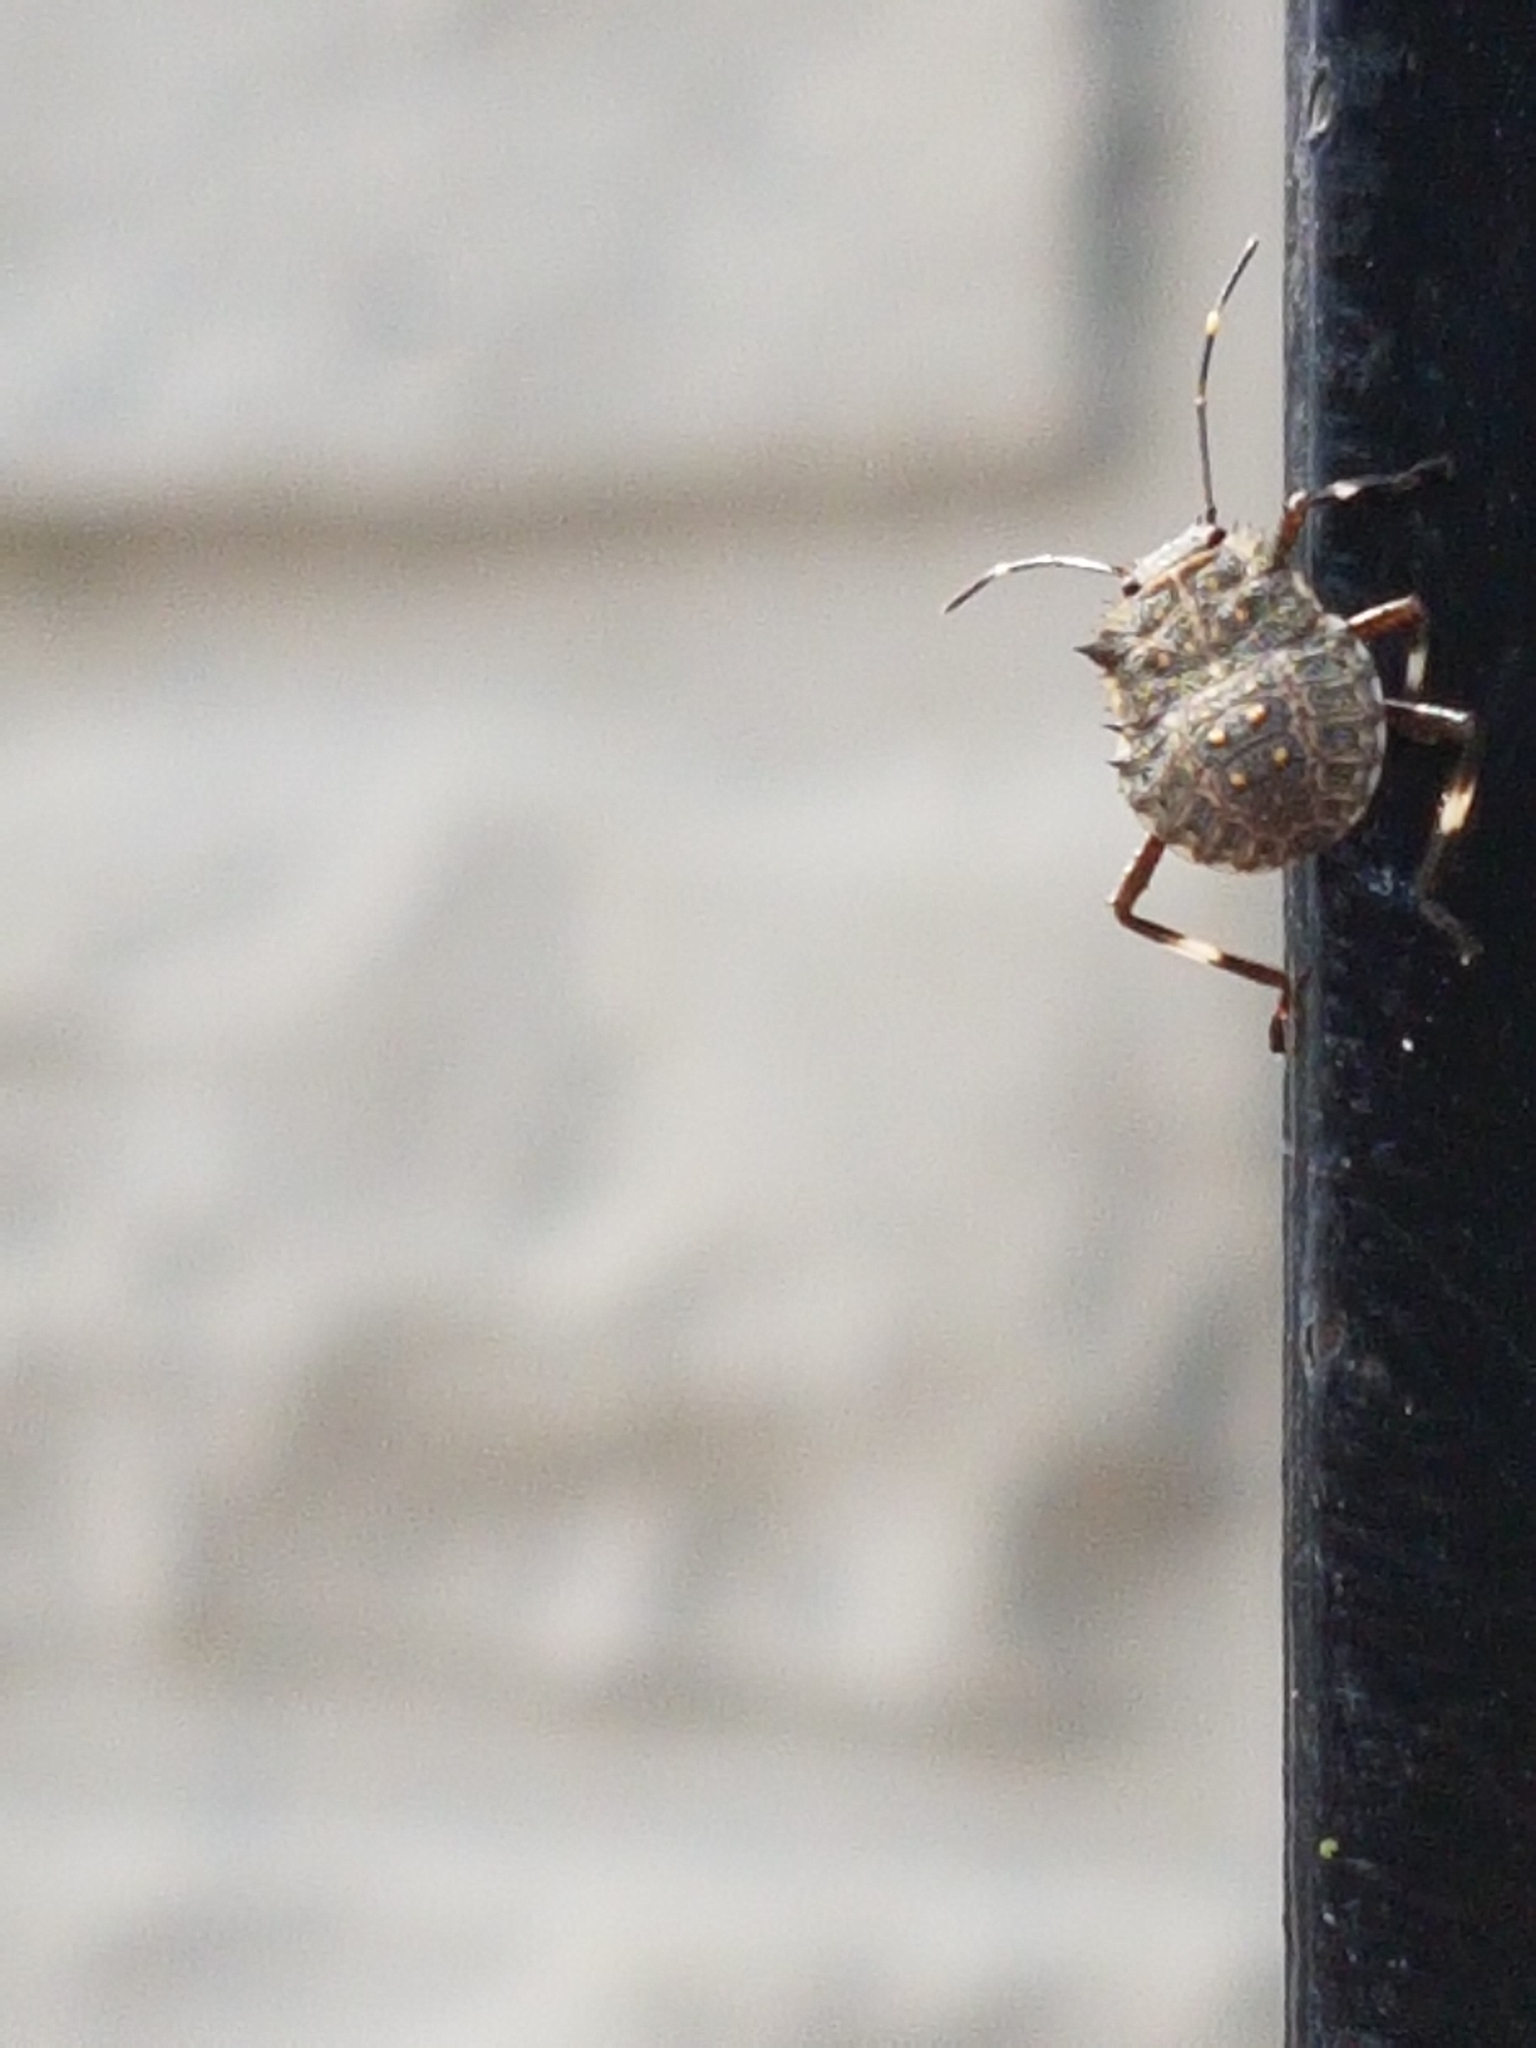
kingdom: Animalia
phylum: Arthropoda
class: Insecta
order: Hemiptera
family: Pentatomidae
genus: Halyomorpha
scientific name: Halyomorpha halys
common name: Brown marmorated stink bug
